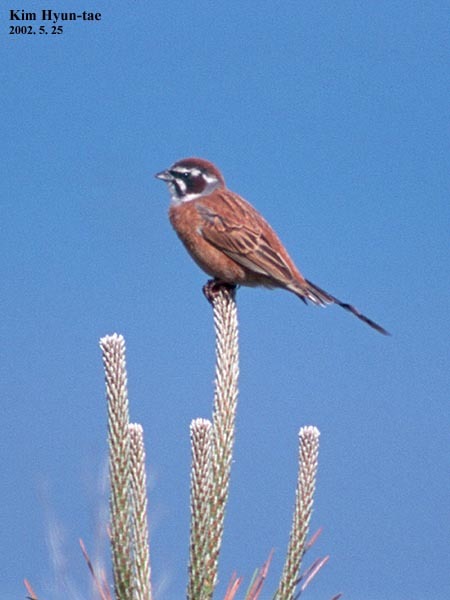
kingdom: Animalia
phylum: Chordata
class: Aves
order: Passeriformes
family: Emberizidae
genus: Emberiza
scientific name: Emberiza cioides
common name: Meadow bunting
